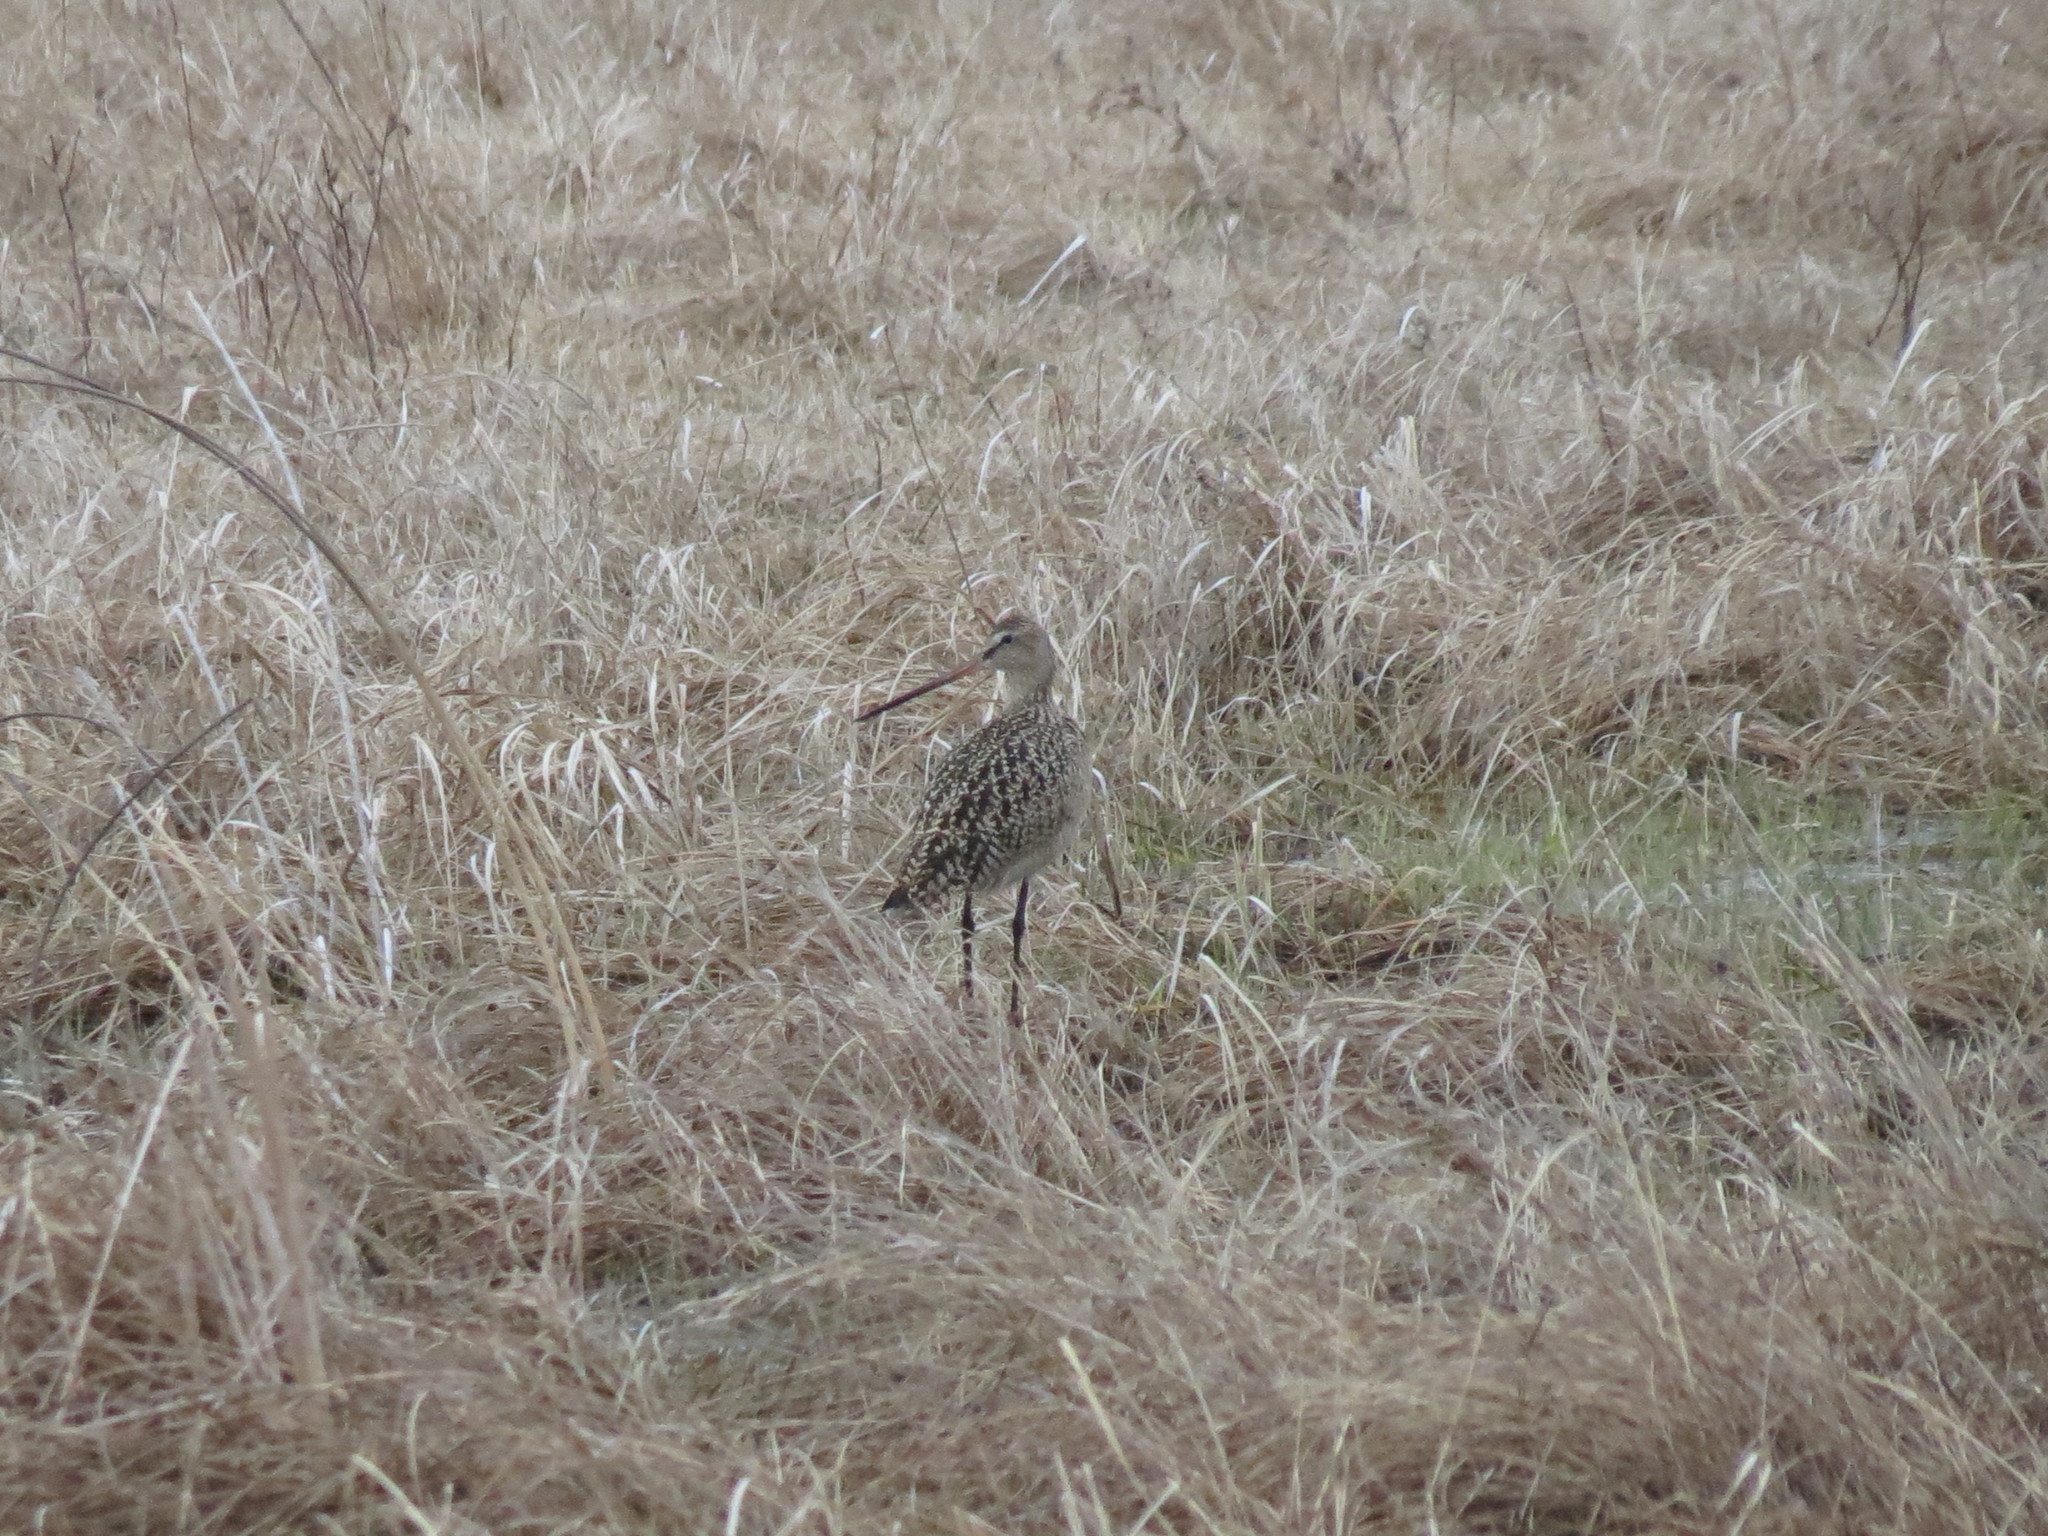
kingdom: Animalia
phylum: Chordata
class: Aves
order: Charadriiformes
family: Scolopacidae
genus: Limosa
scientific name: Limosa fedoa
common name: Marbled godwit
